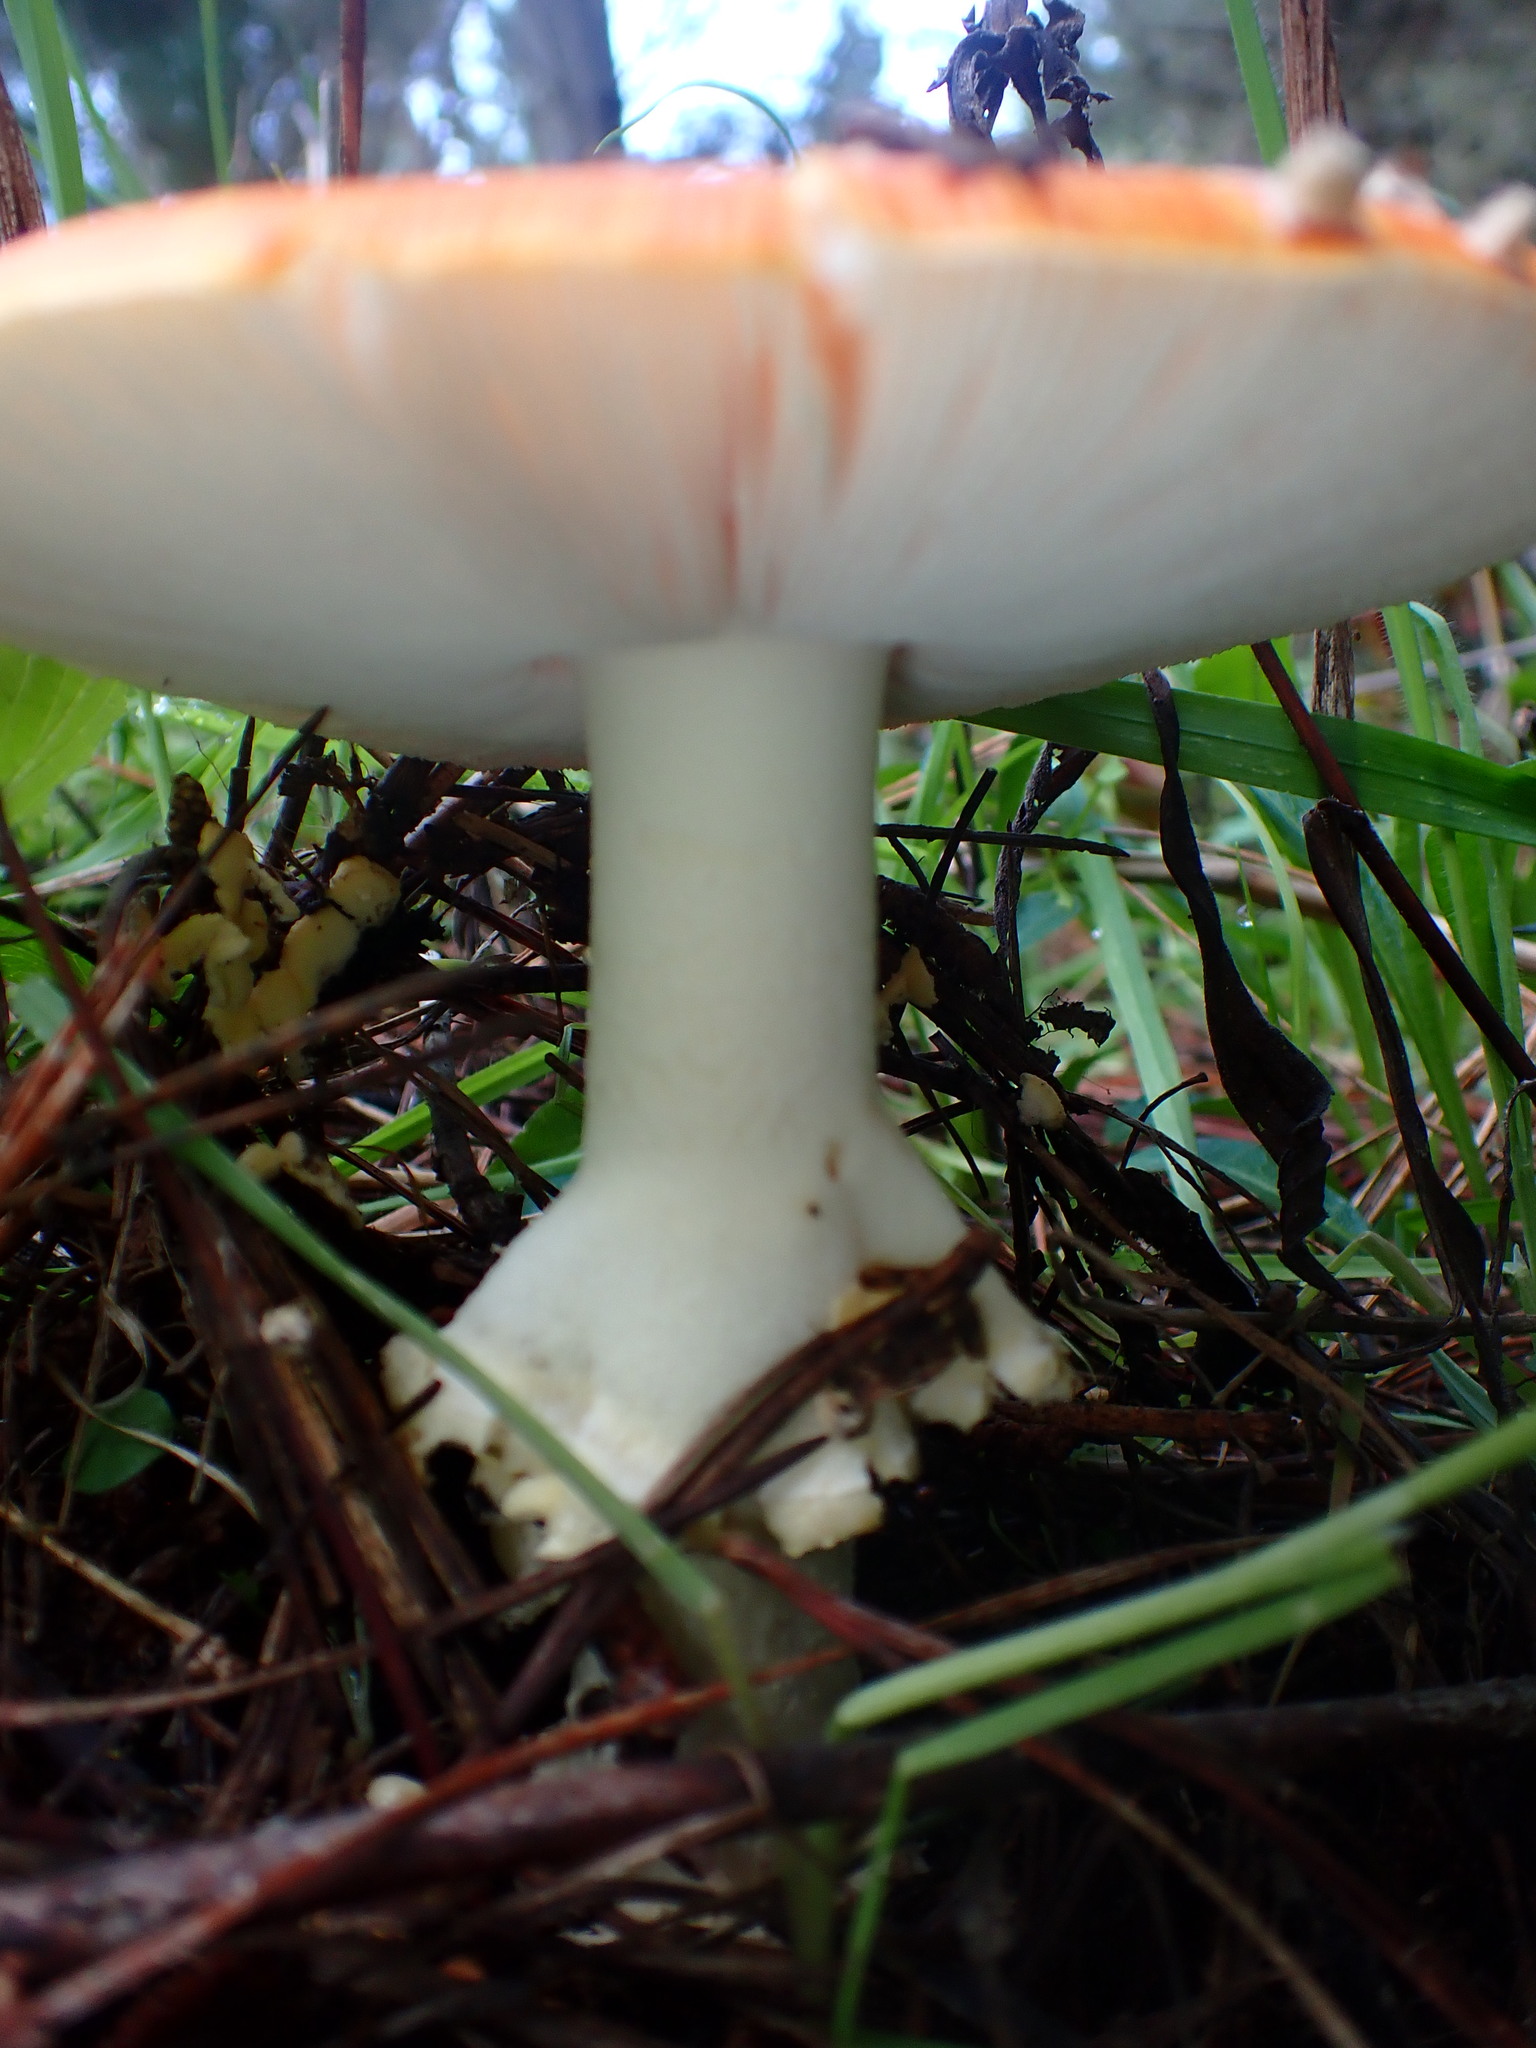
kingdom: Fungi
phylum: Basidiomycota
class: Agaricomycetes
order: Agaricales
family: Amanitaceae
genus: Amanita
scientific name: Amanita muscaria
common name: Fly agaric
